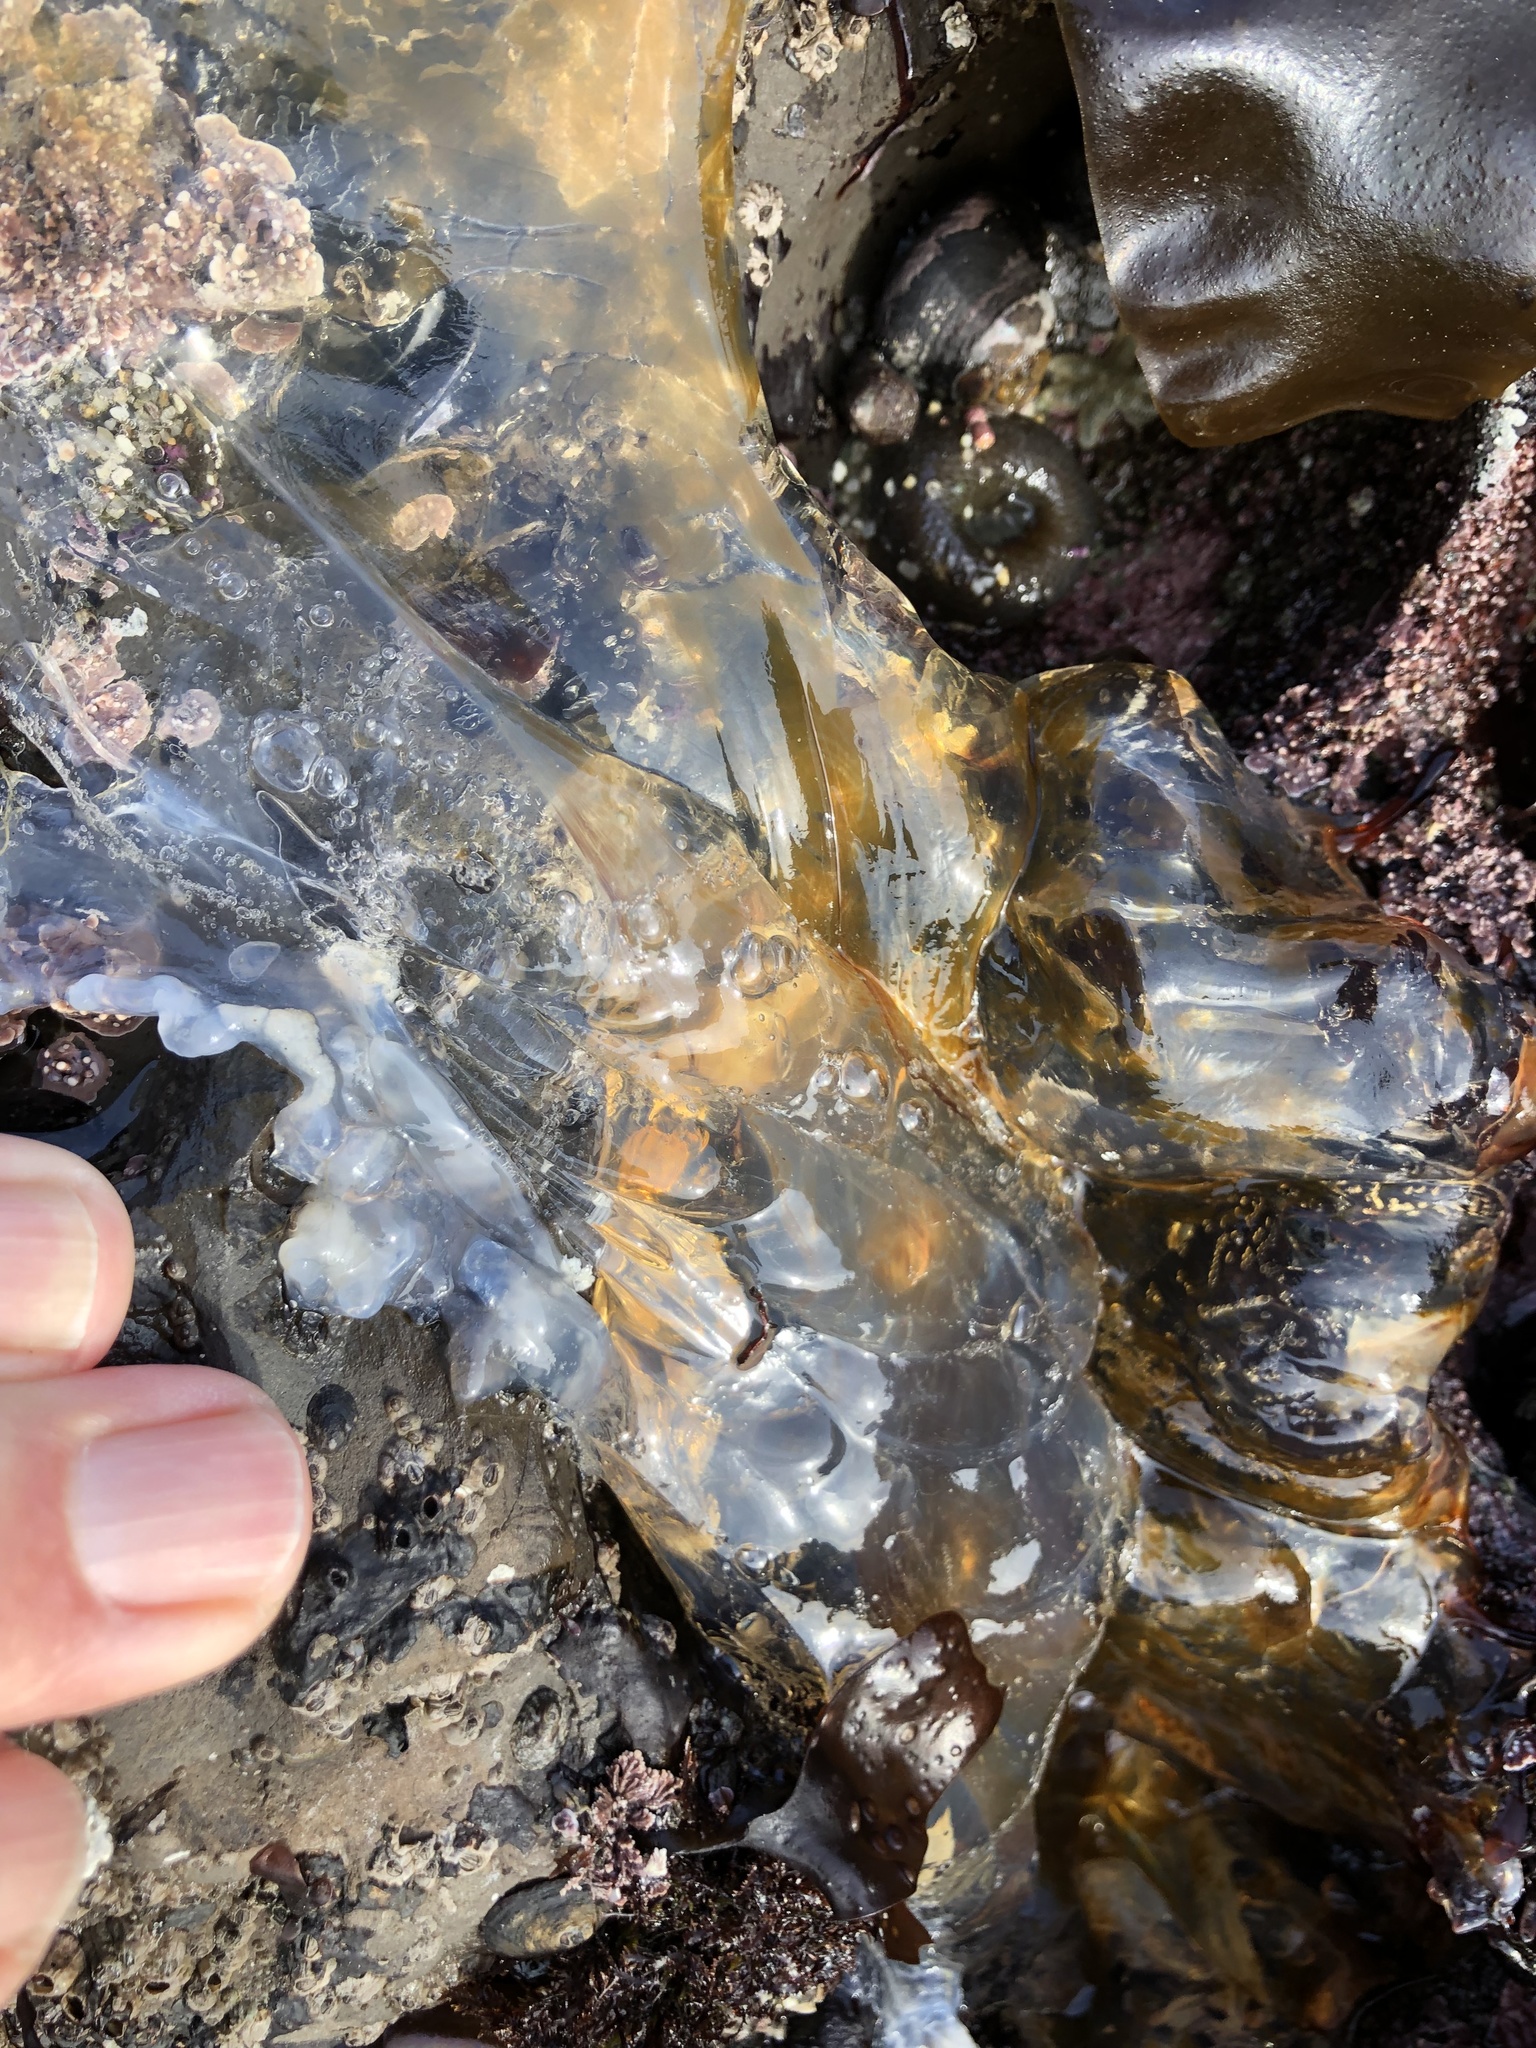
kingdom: Animalia
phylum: Cnidaria
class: Scyphozoa
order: Semaeostomeae
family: Pelagiidae
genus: Chrysaora
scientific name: Chrysaora fuscescens
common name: Sea nettle
